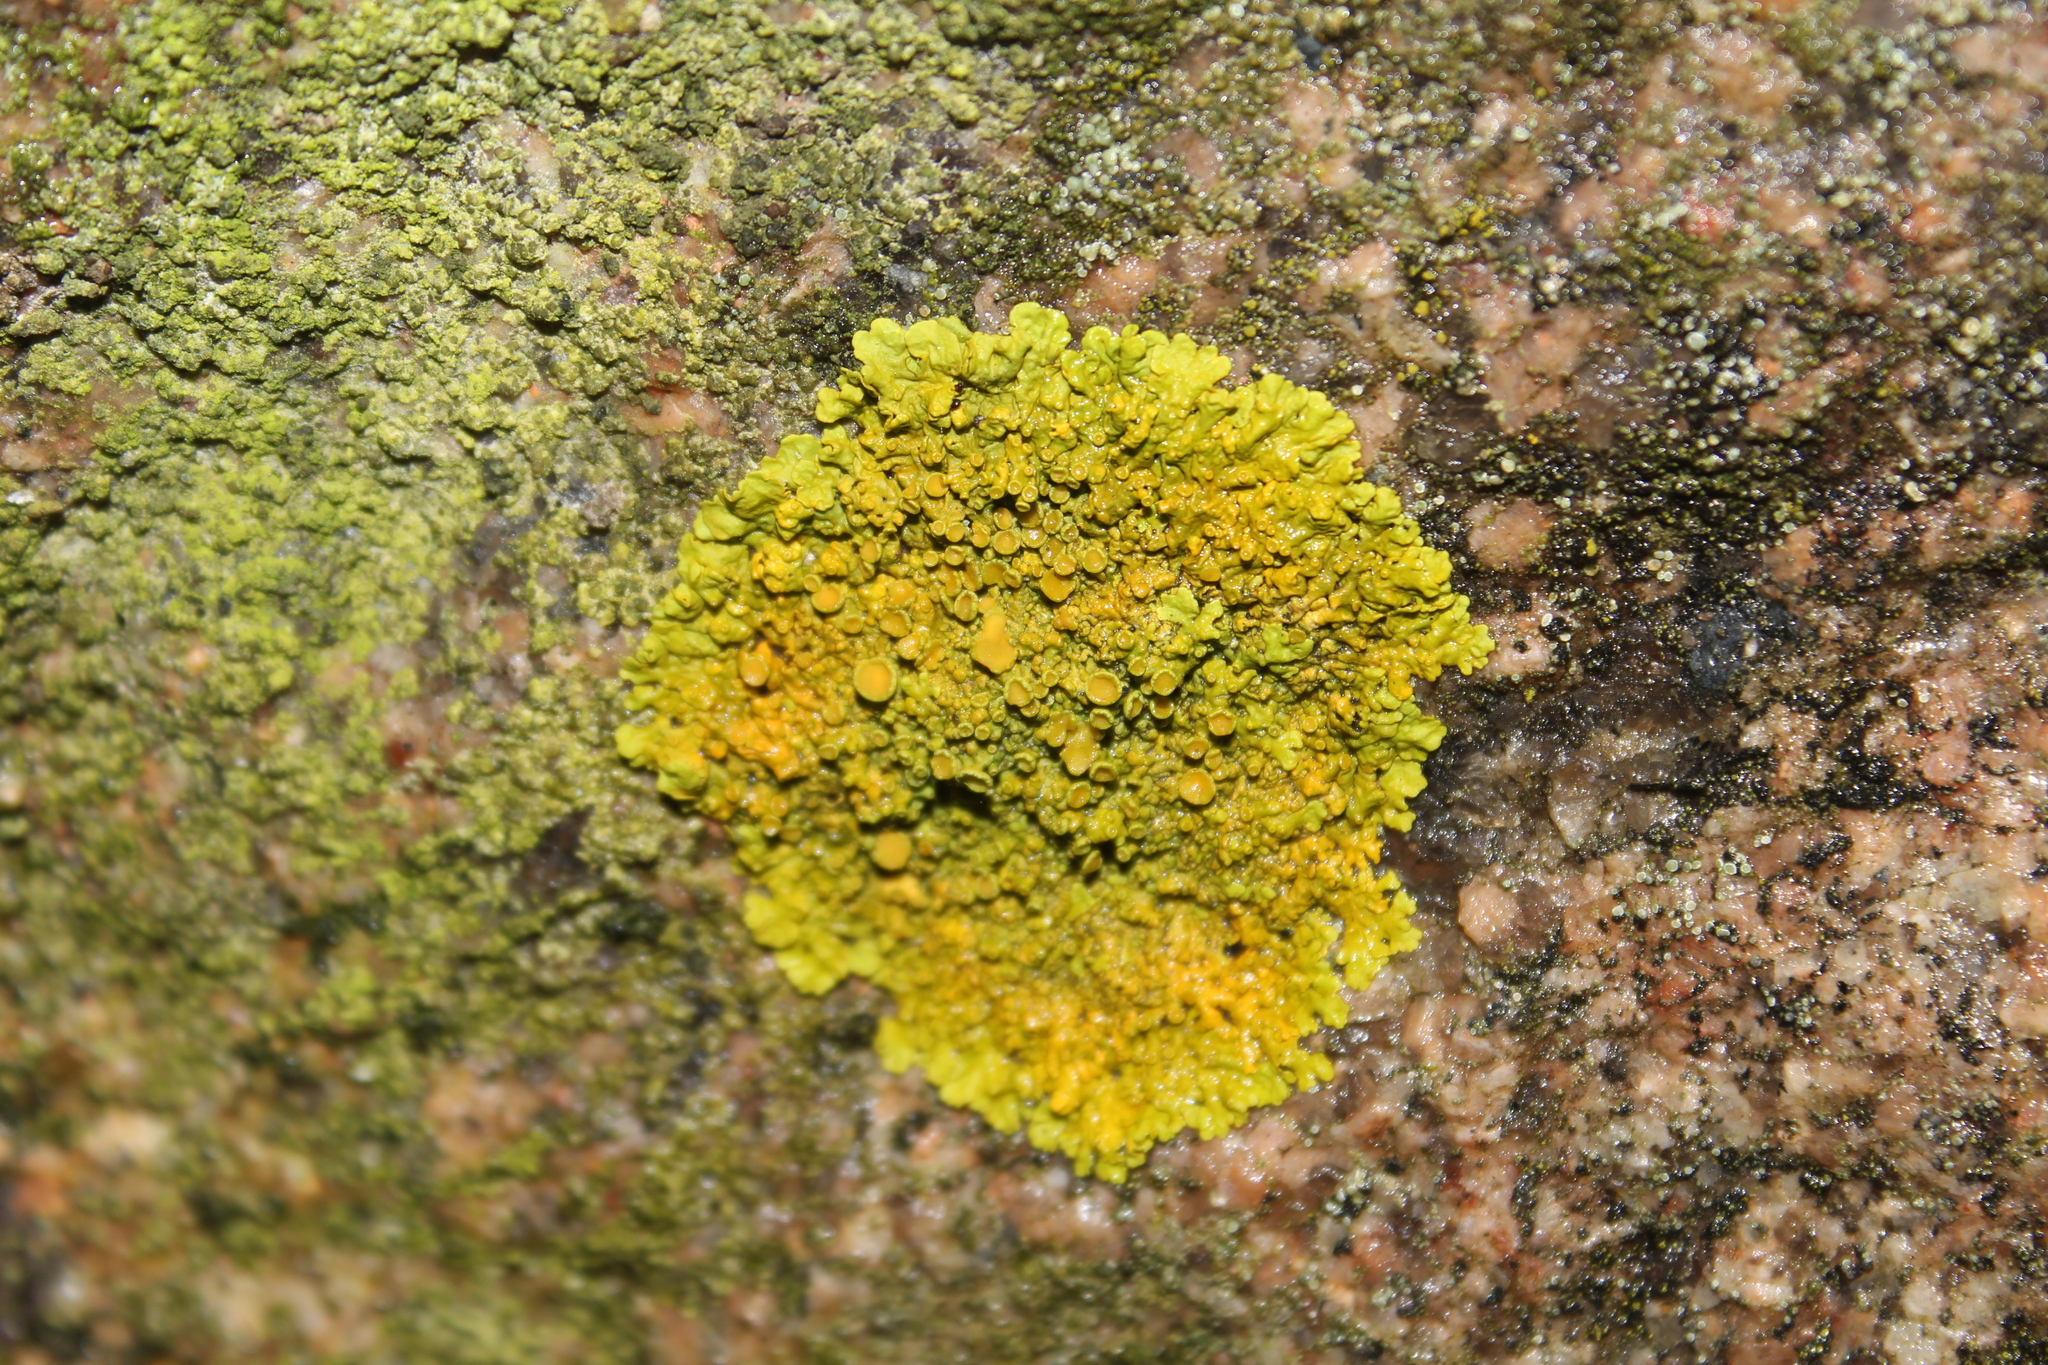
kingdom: Fungi
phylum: Ascomycota
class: Lecanoromycetes
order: Teloschistales
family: Teloschistaceae
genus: Xanthoria
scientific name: Xanthoria parietina
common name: Common orange lichen
